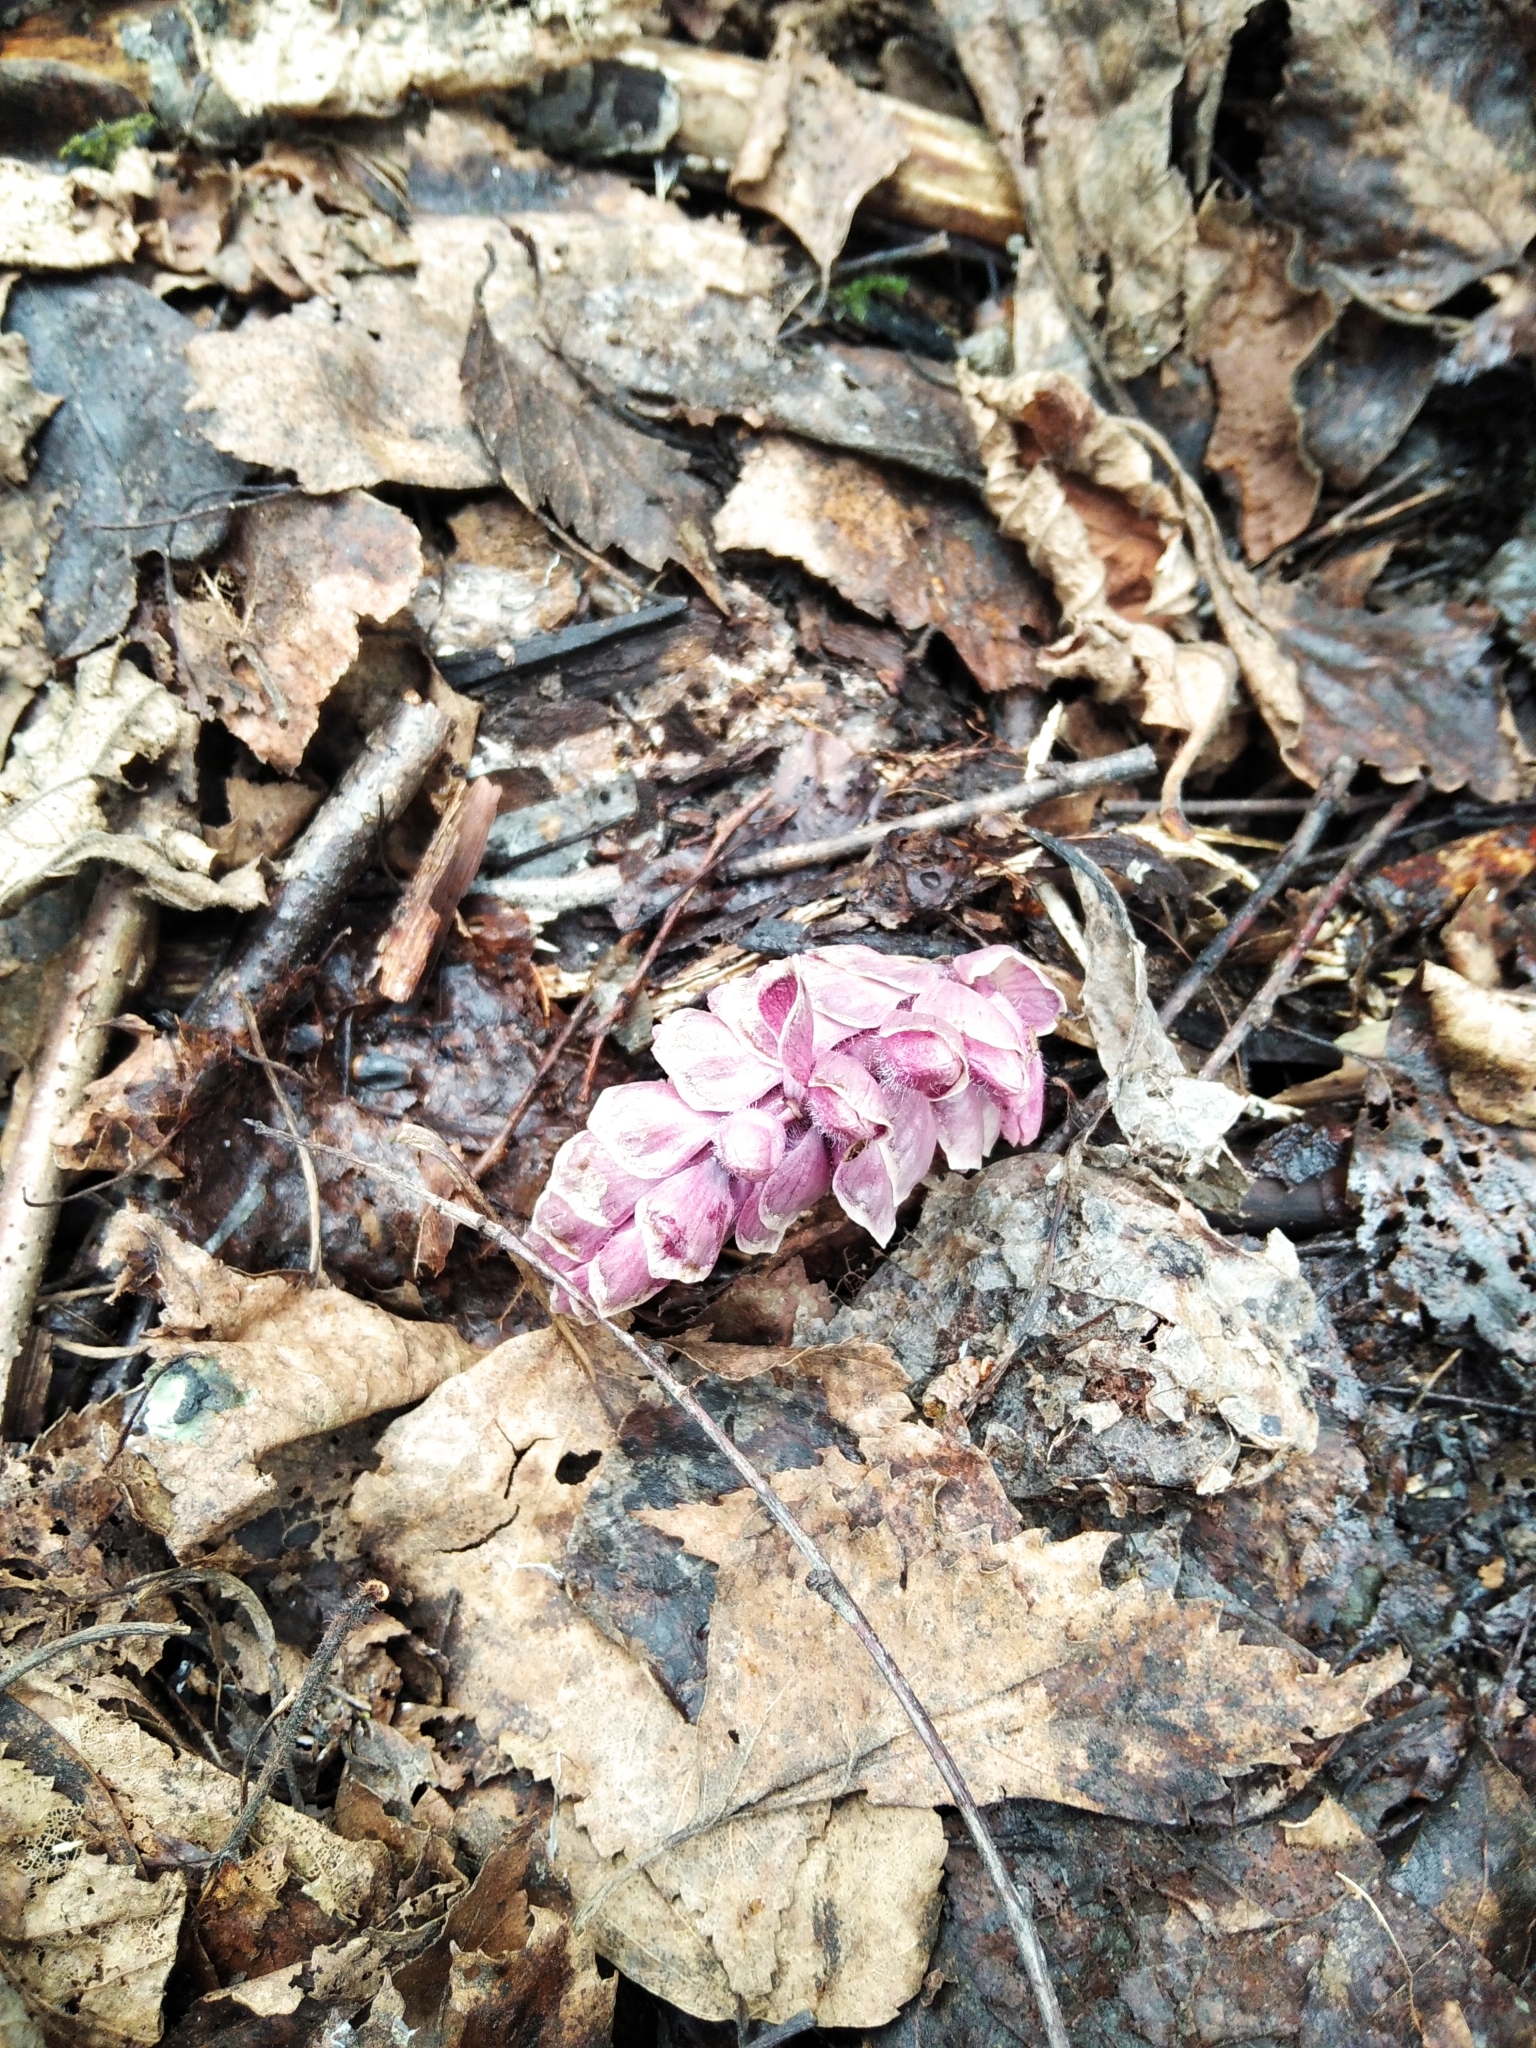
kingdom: Plantae
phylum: Tracheophyta
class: Magnoliopsida
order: Lamiales
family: Orobanchaceae
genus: Lathraea
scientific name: Lathraea squamaria
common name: Toothwort
